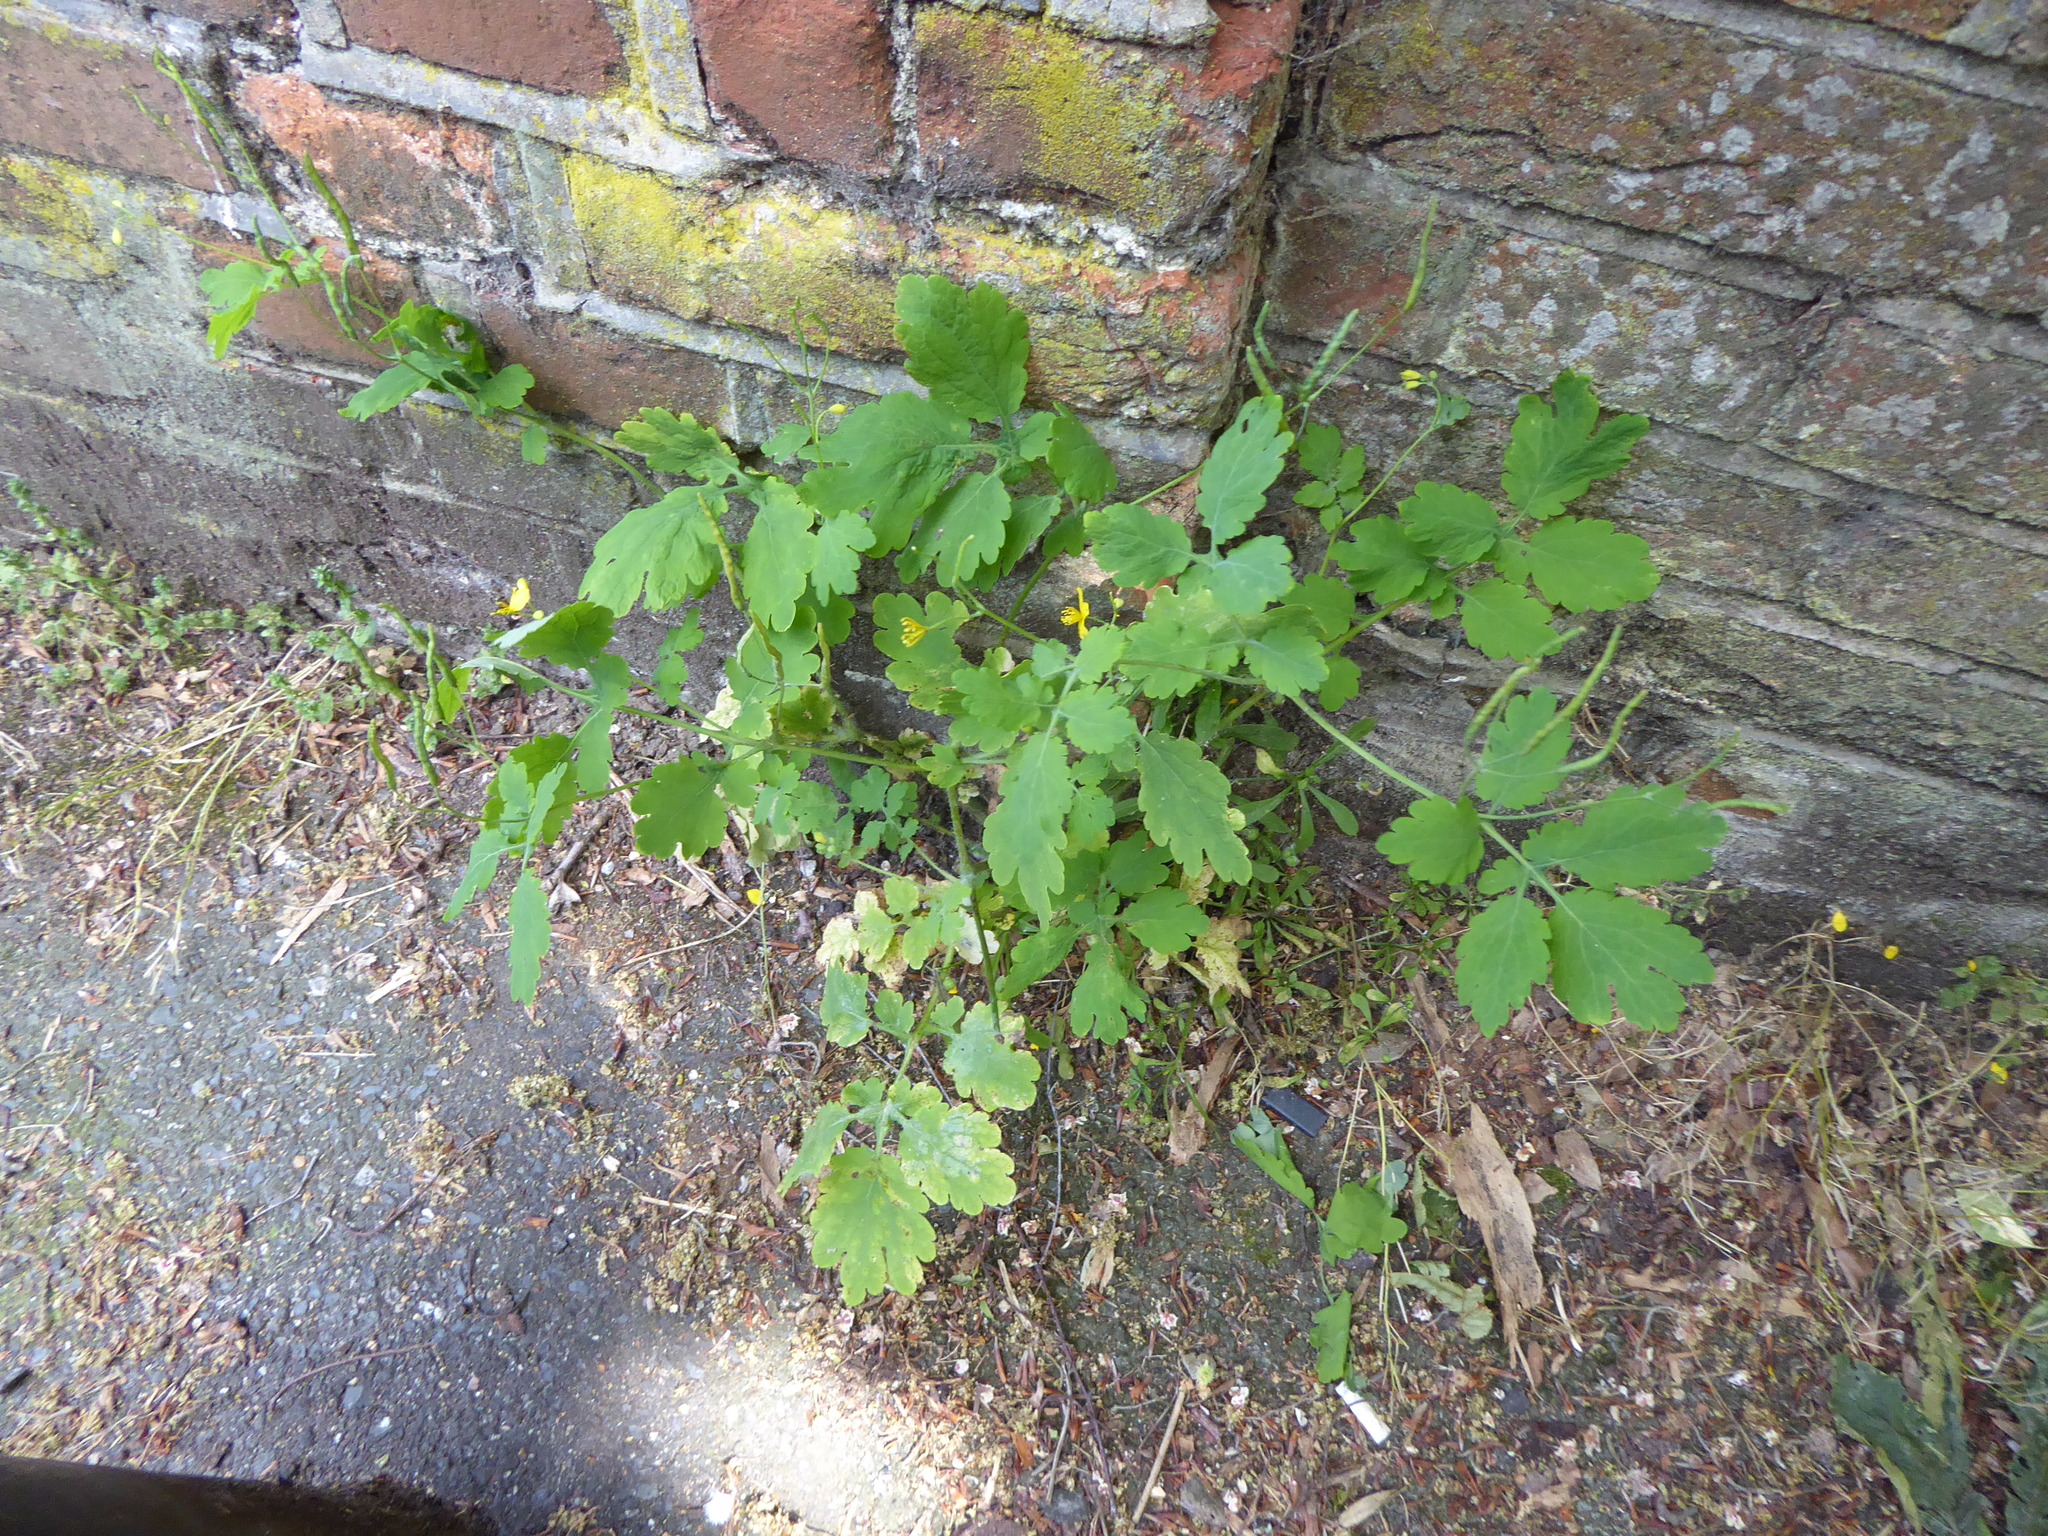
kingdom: Plantae
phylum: Tracheophyta
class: Magnoliopsida
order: Ranunculales
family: Papaveraceae
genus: Chelidonium
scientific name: Chelidonium majus
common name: Greater celandine
